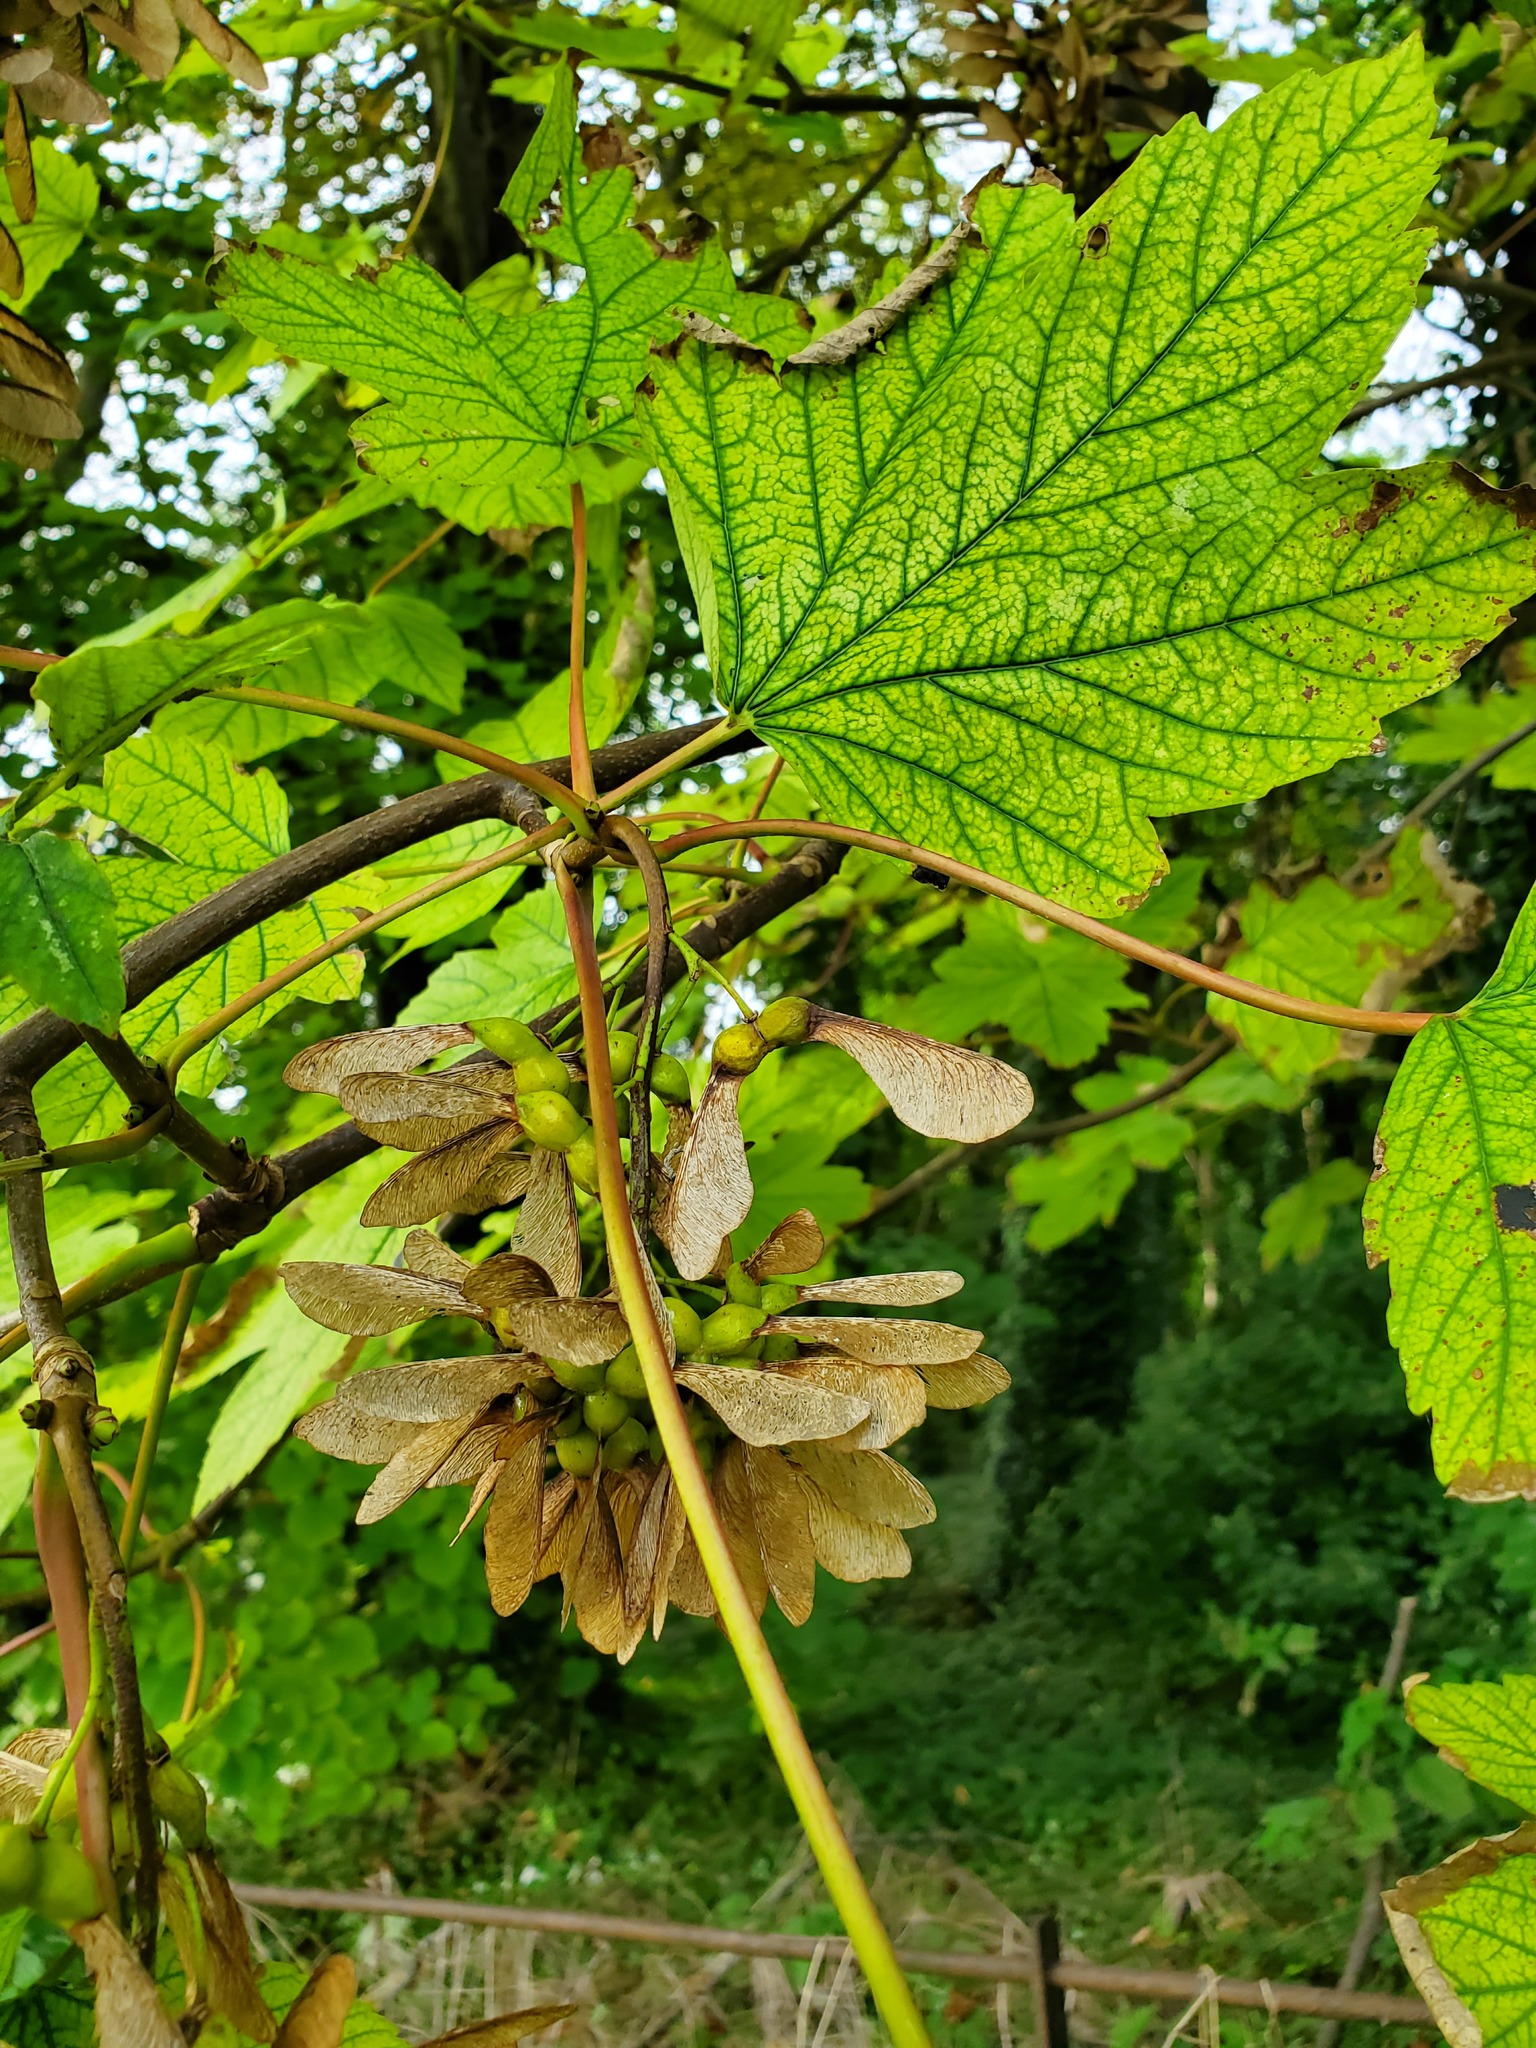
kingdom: Plantae
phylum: Tracheophyta
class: Magnoliopsida
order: Sapindales
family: Sapindaceae
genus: Acer
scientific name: Acer pseudoplatanus
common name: Sycamore
